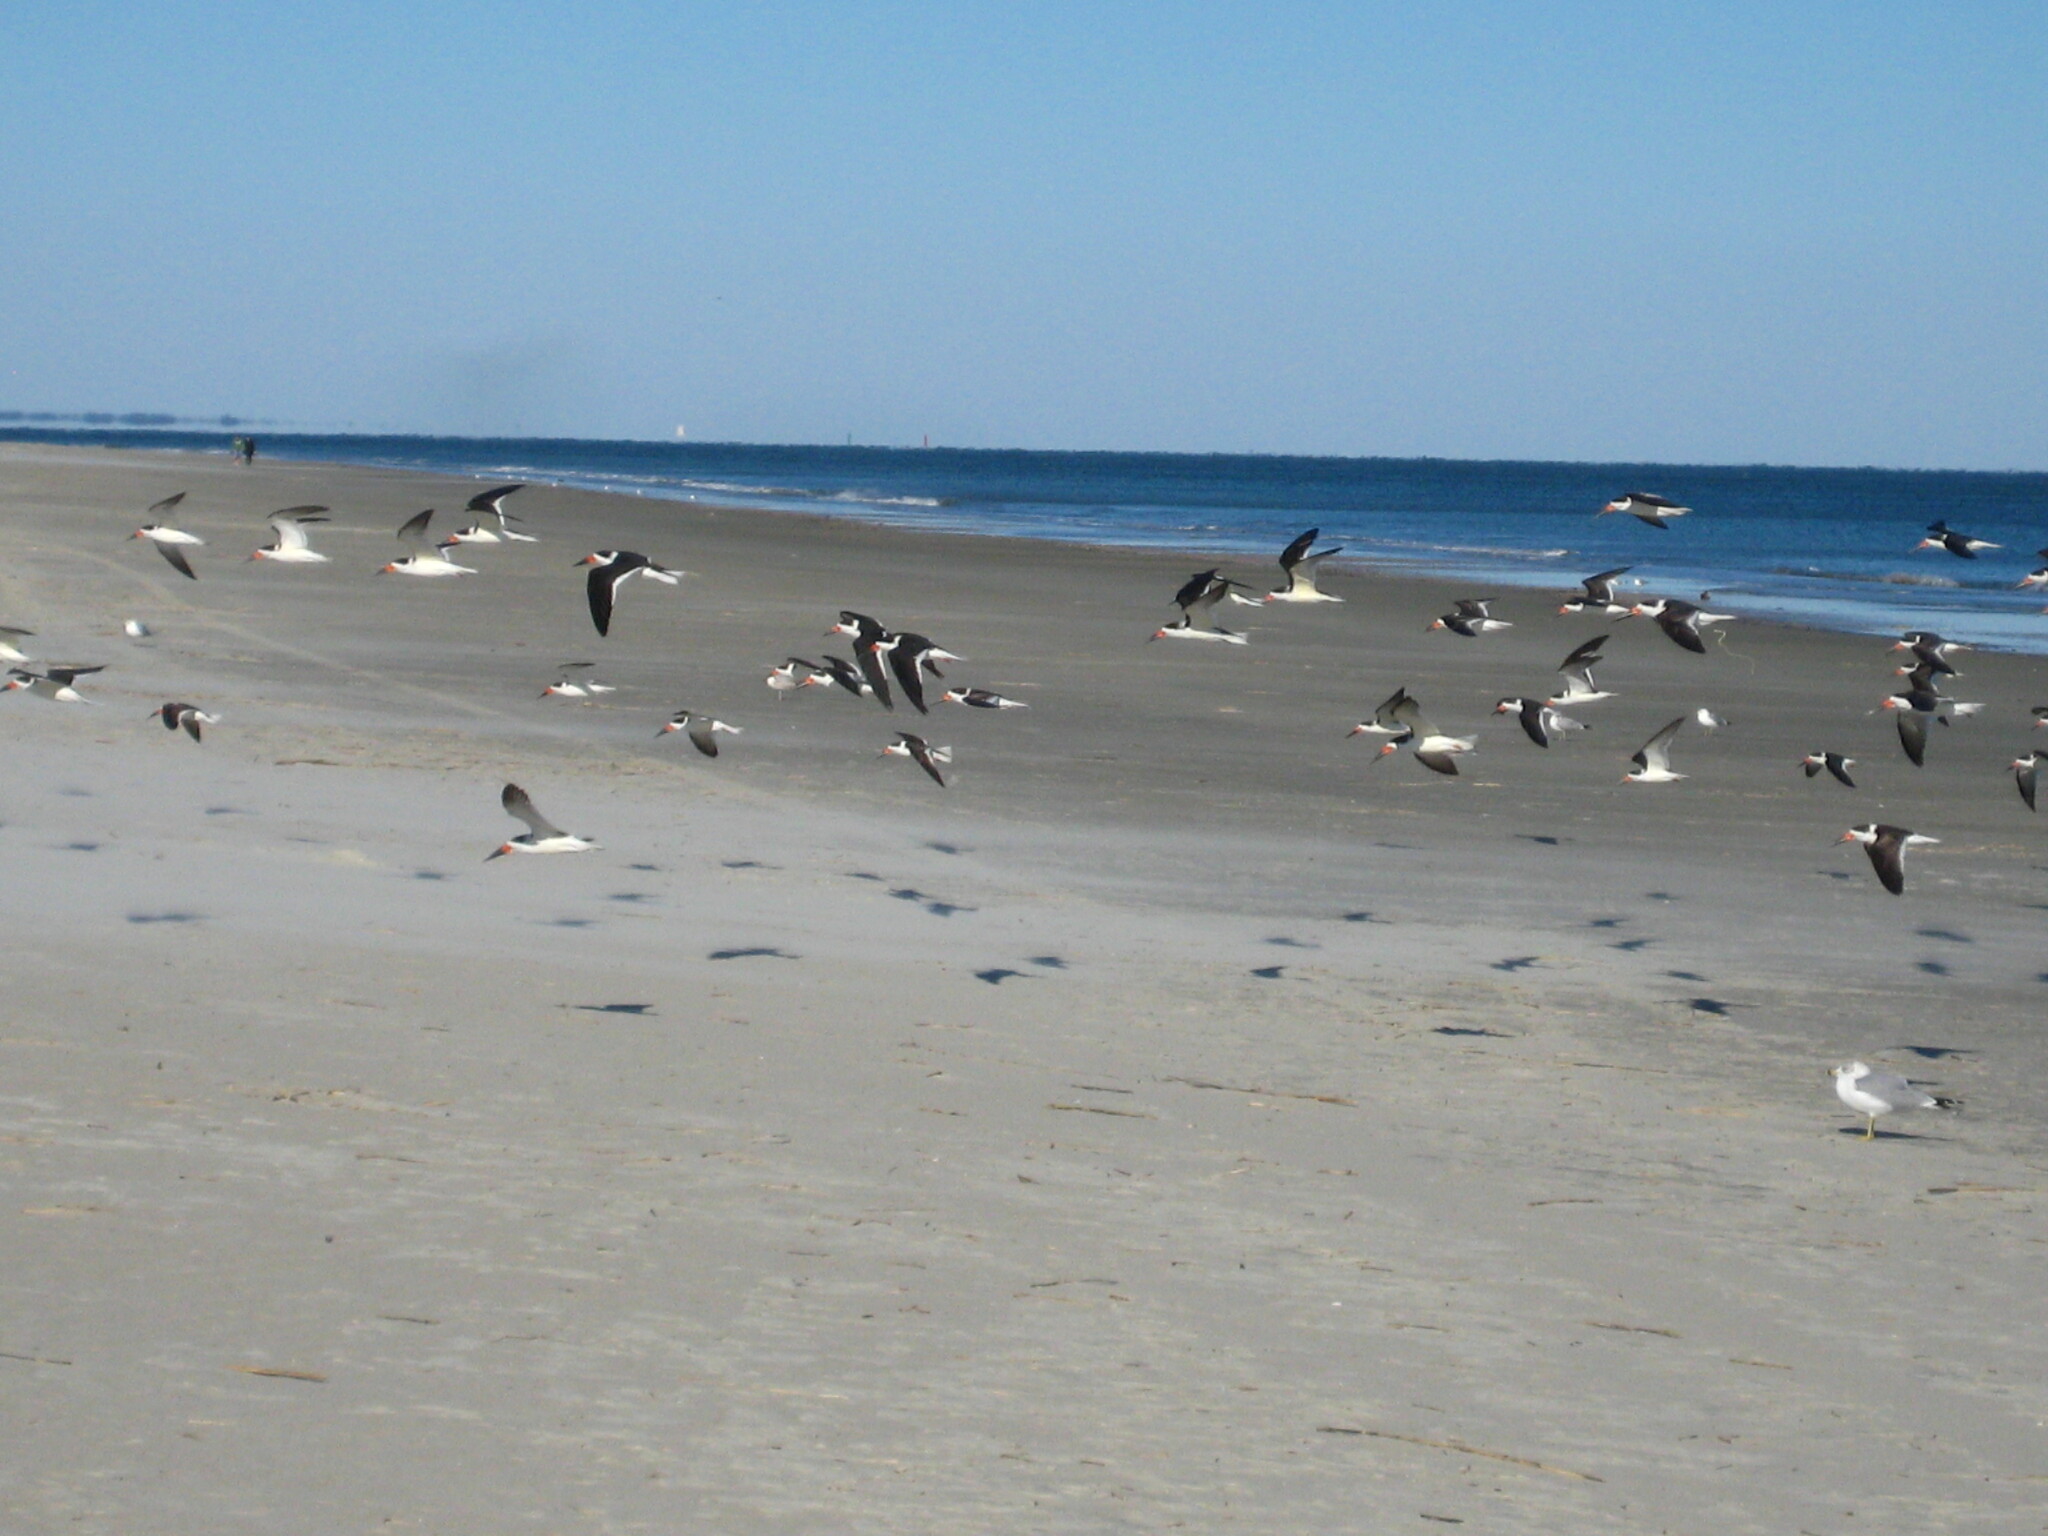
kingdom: Animalia
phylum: Chordata
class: Aves
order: Charadriiformes
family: Laridae
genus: Rynchops
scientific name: Rynchops niger
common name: Black skimmer
